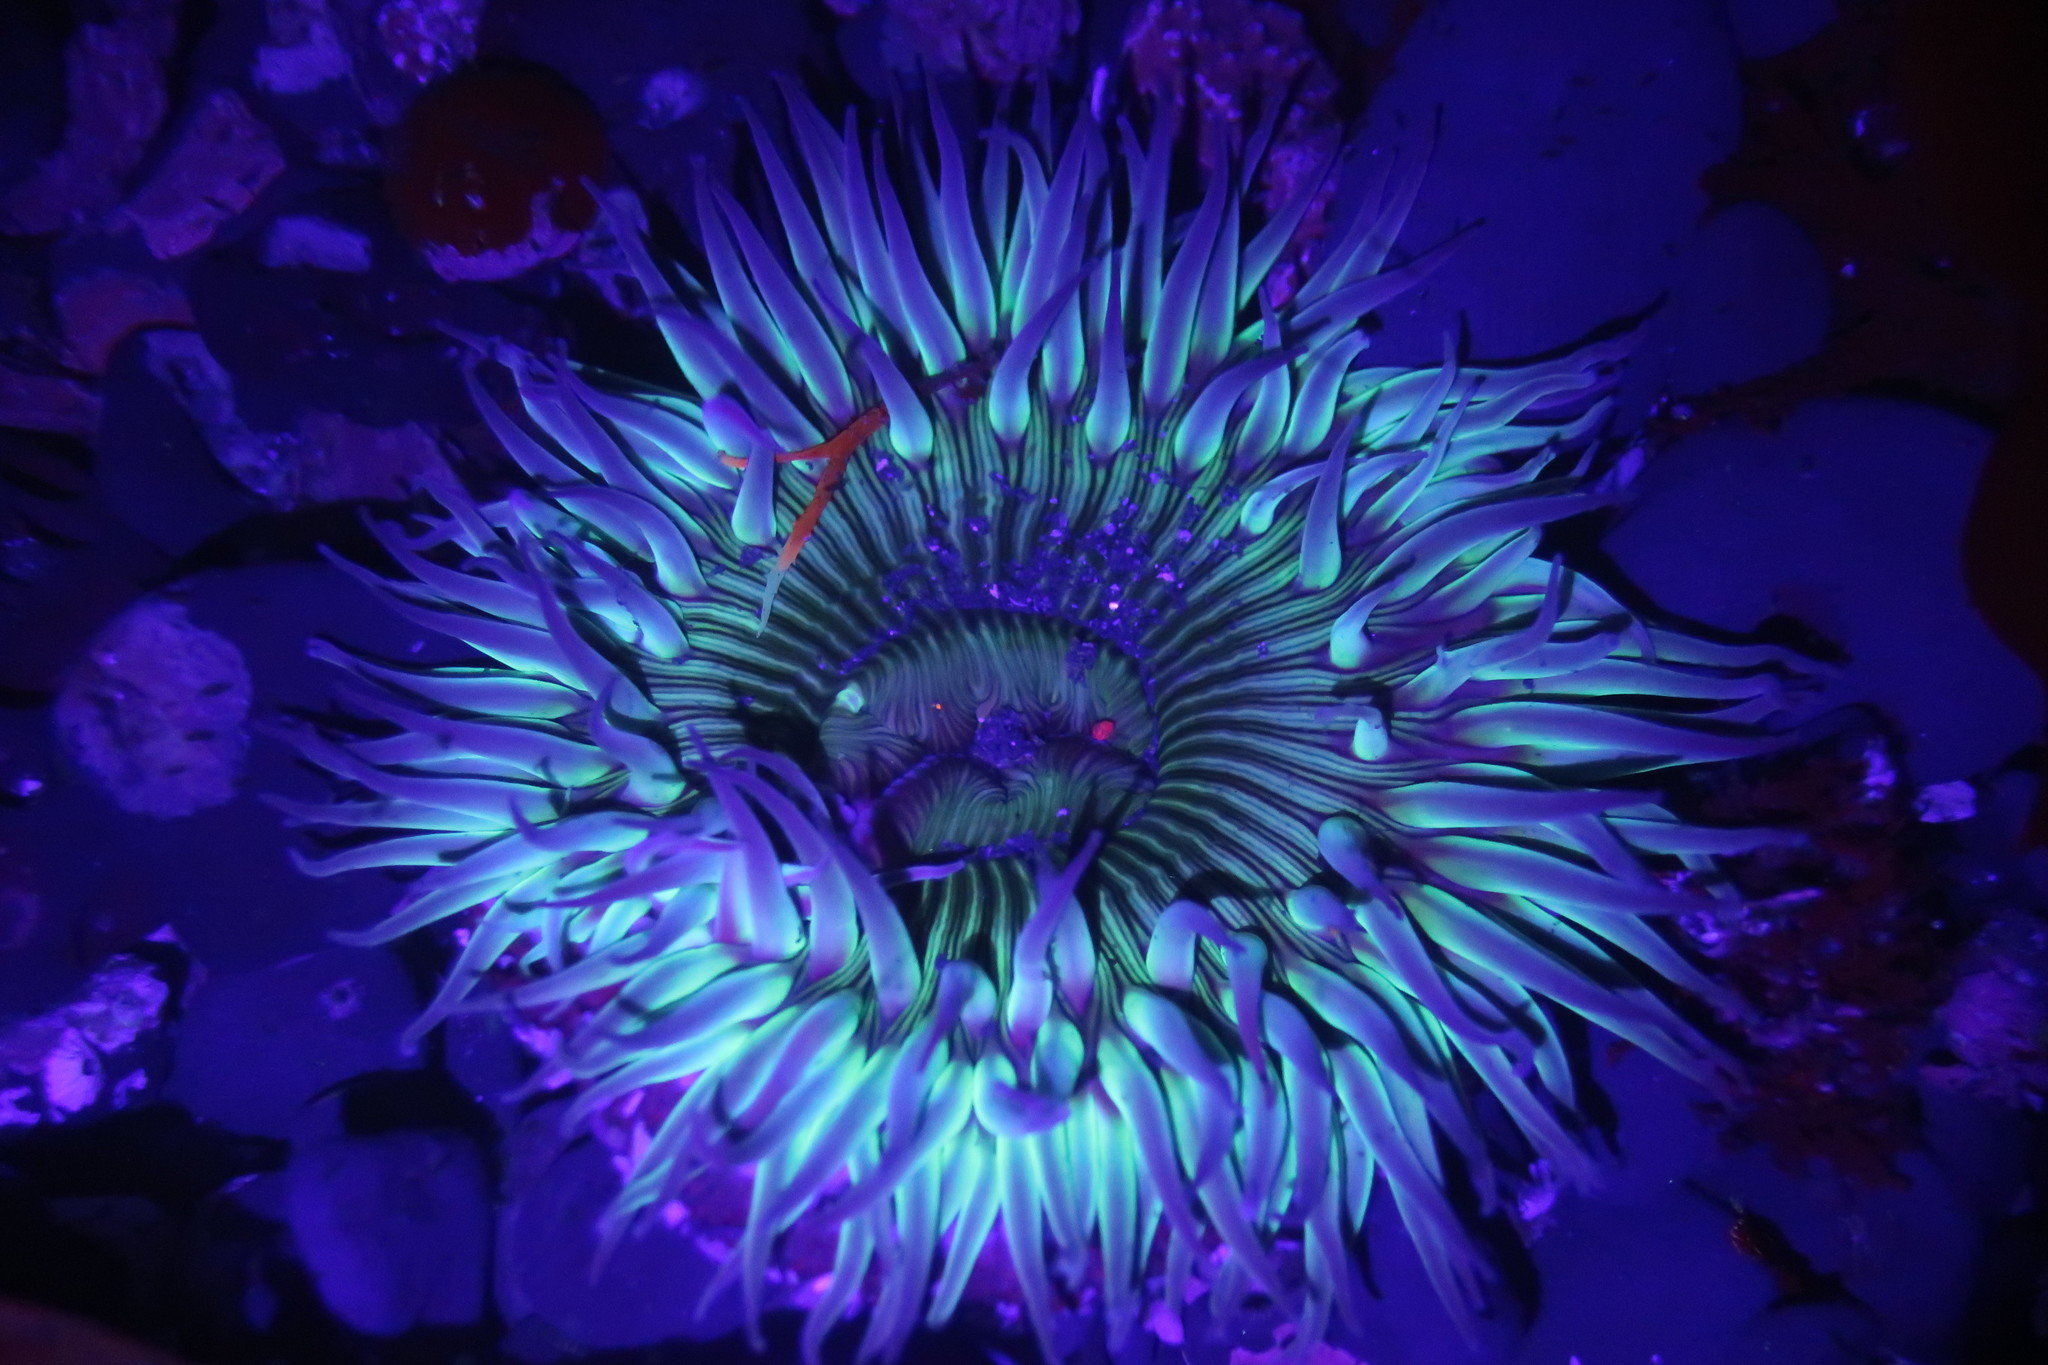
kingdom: Animalia
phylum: Cnidaria
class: Anthozoa
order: Actiniaria
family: Actiniidae
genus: Anthopleura
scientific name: Anthopleura sola
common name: Sun anemone
